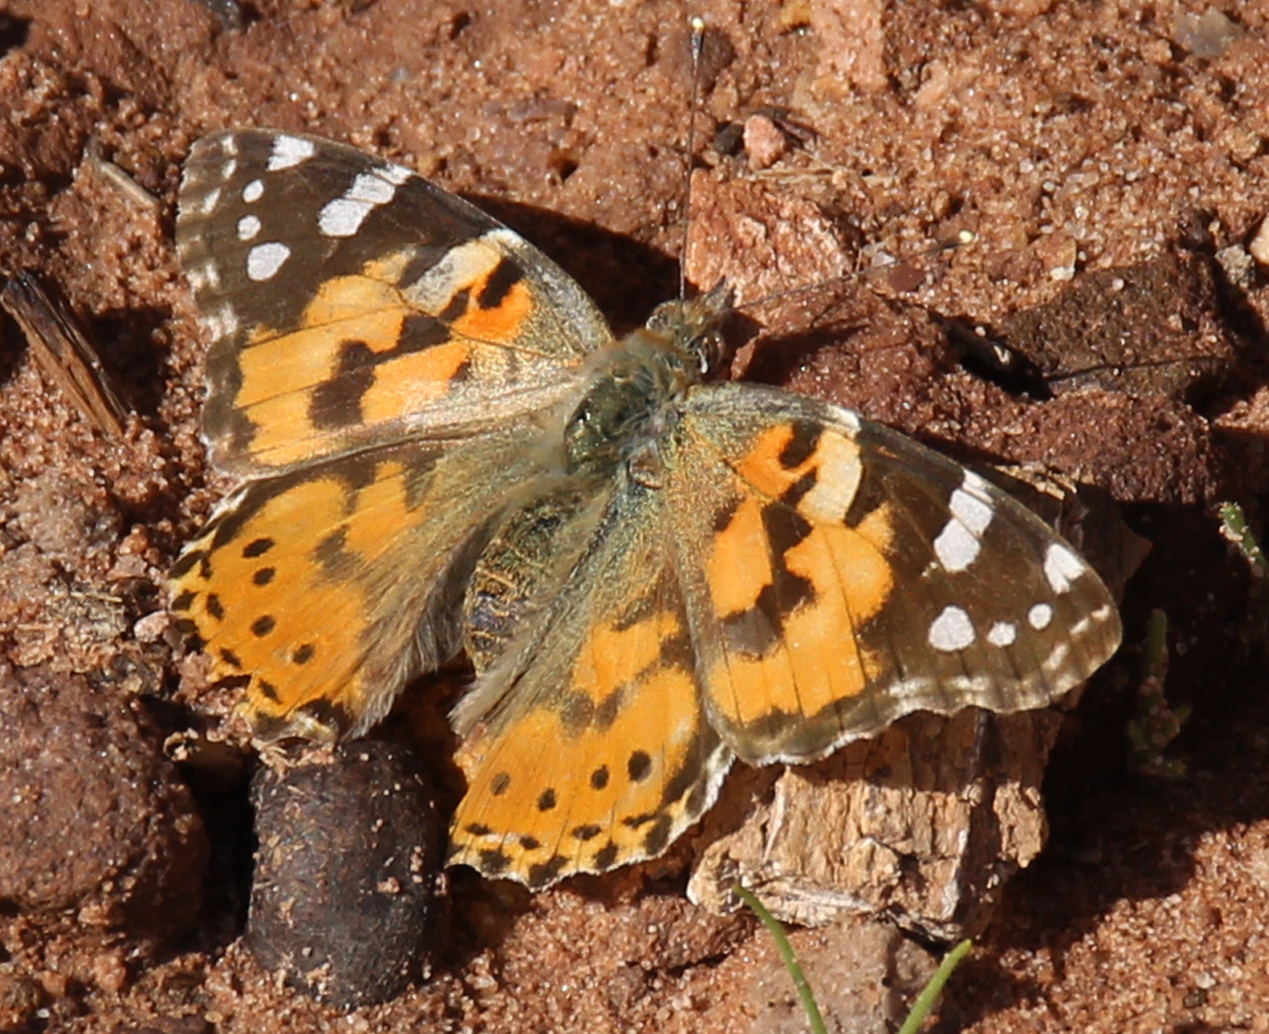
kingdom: Animalia
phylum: Arthropoda
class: Insecta
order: Lepidoptera
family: Nymphalidae
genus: Vanessa
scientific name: Vanessa cardui
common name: Painted lady
